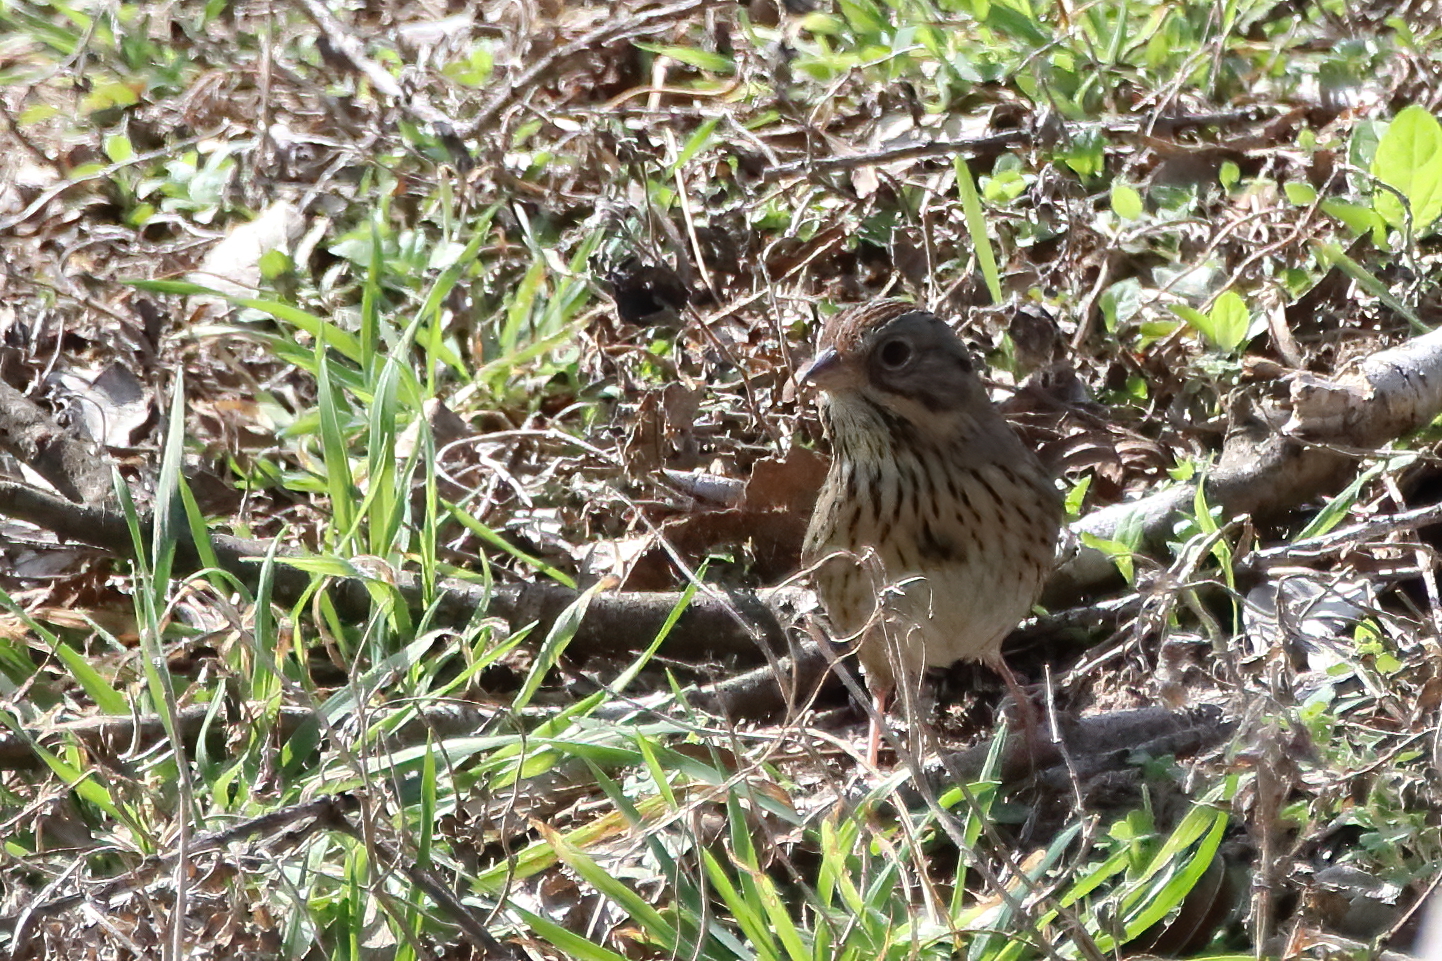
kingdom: Animalia
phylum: Chordata
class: Aves
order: Passeriformes
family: Passerellidae
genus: Melospiza
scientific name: Melospiza lincolnii
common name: Lincoln's sparrow
